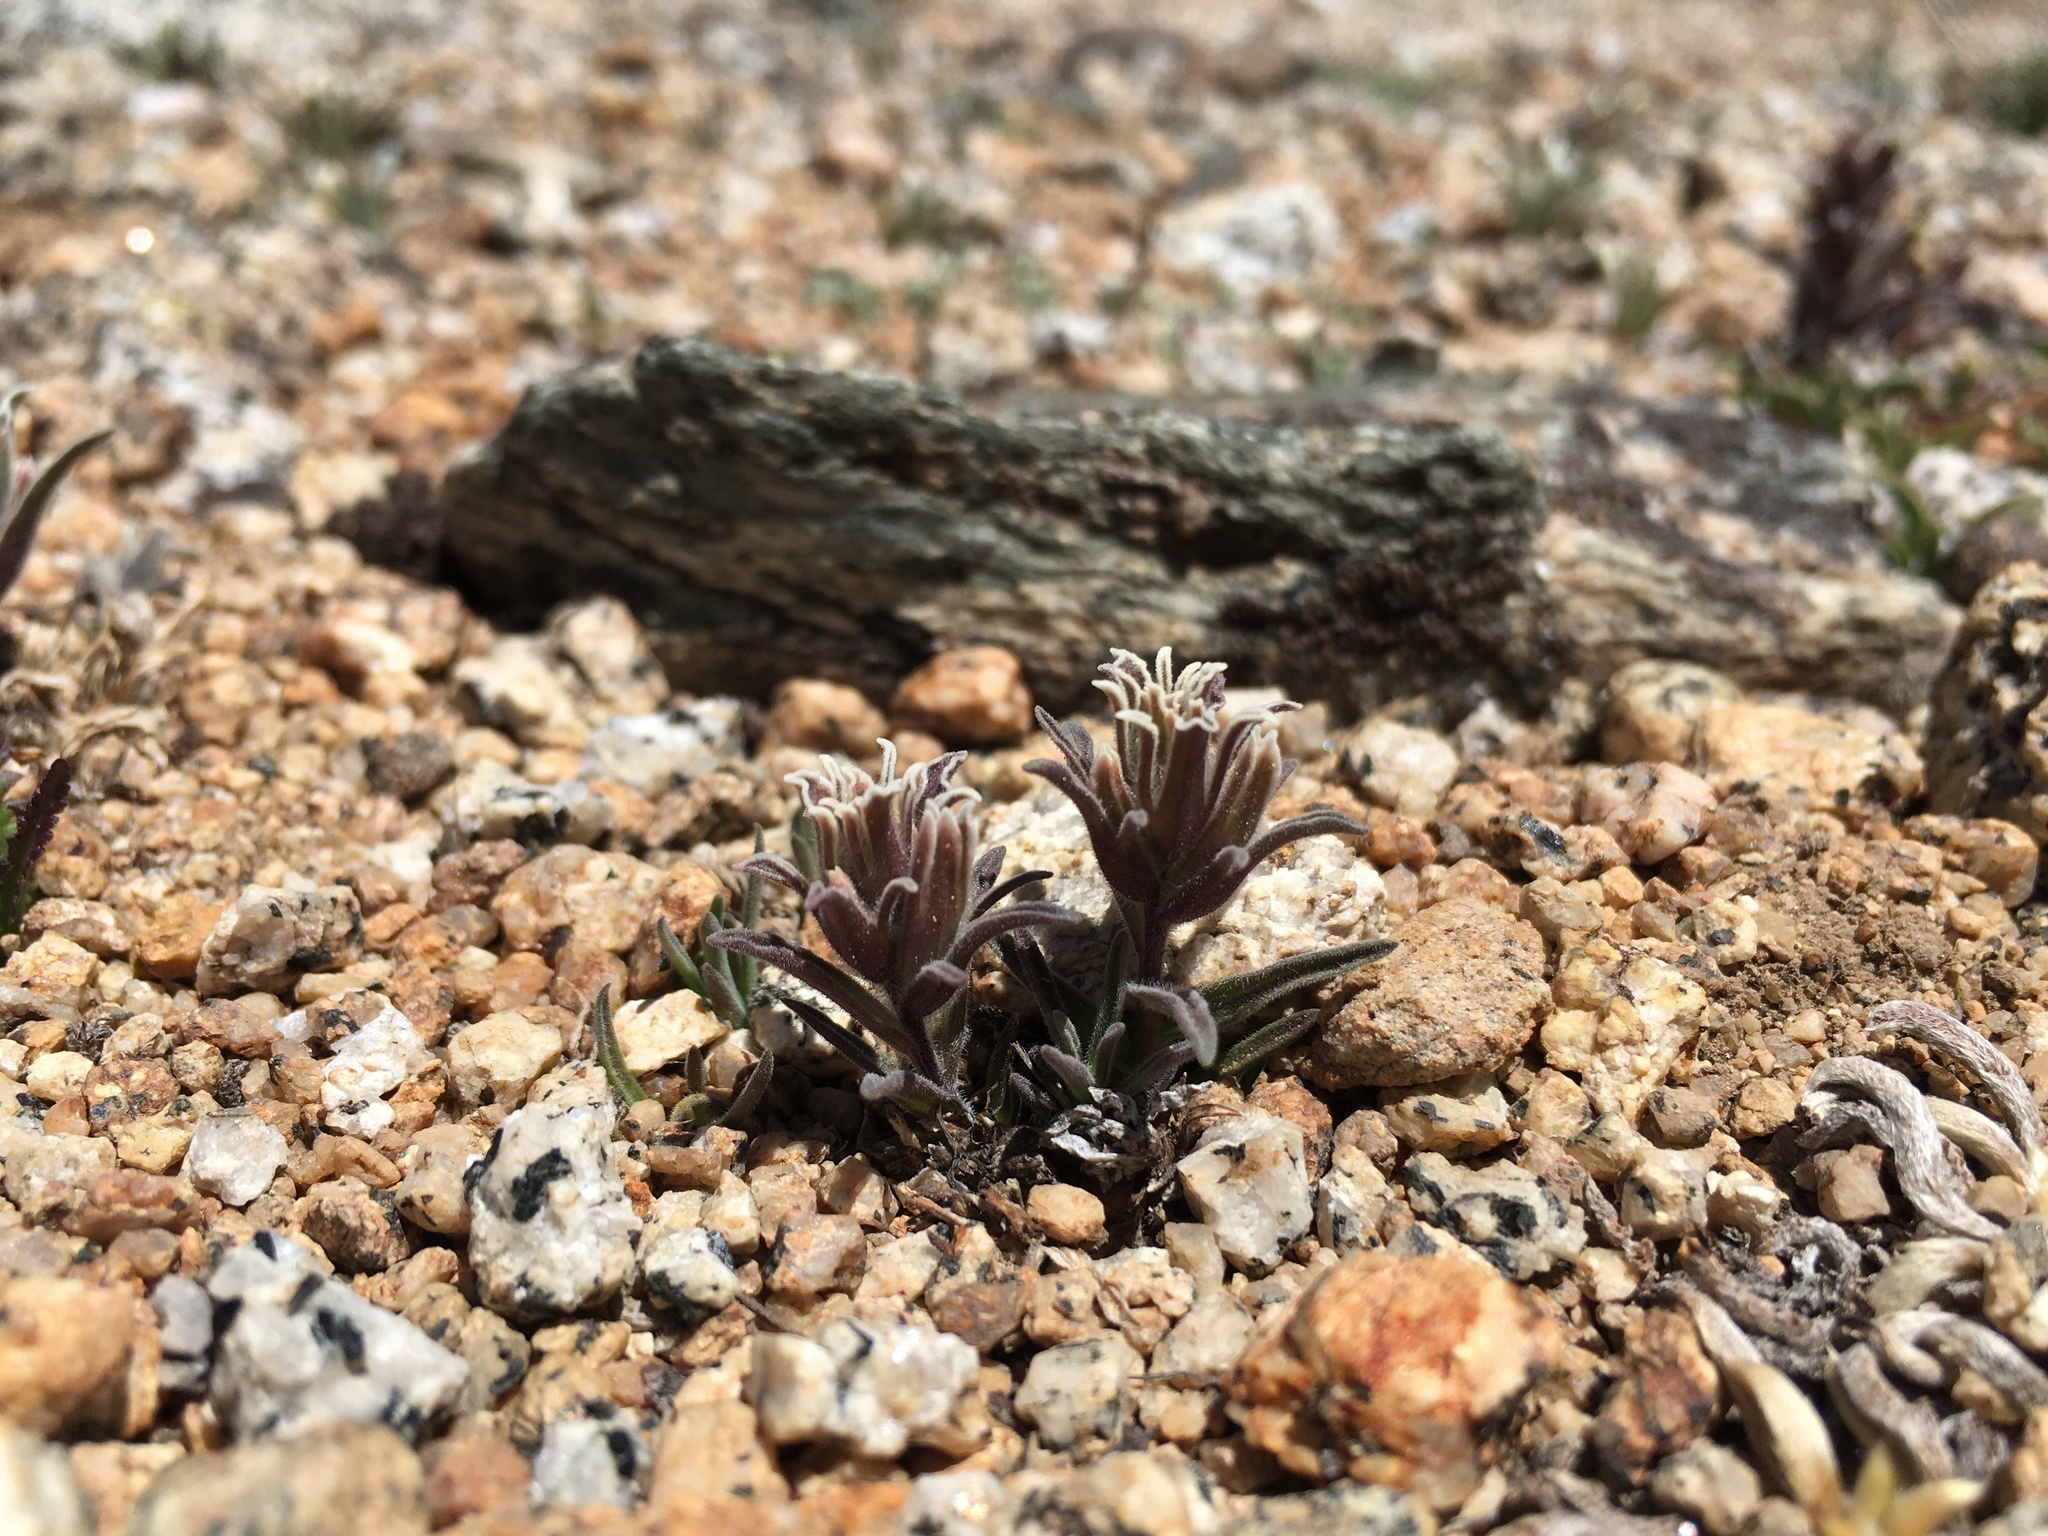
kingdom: Plantae
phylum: Tracheophyta
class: Magnoliopsida
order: Lamiales
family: Orobanchaceae
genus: Castilleja
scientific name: Castilleja nana
